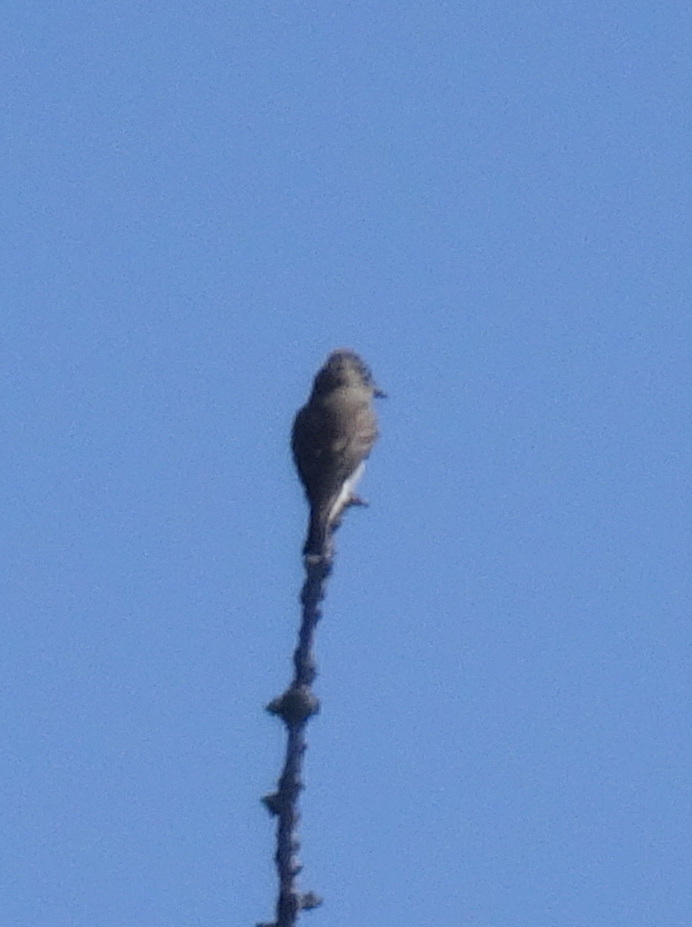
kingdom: Animalia
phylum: Chordata
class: Aves
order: Passeriformes
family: Tyrannidae
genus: Contopus
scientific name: Contopus cooperi
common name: Olive-sided flycatcher
